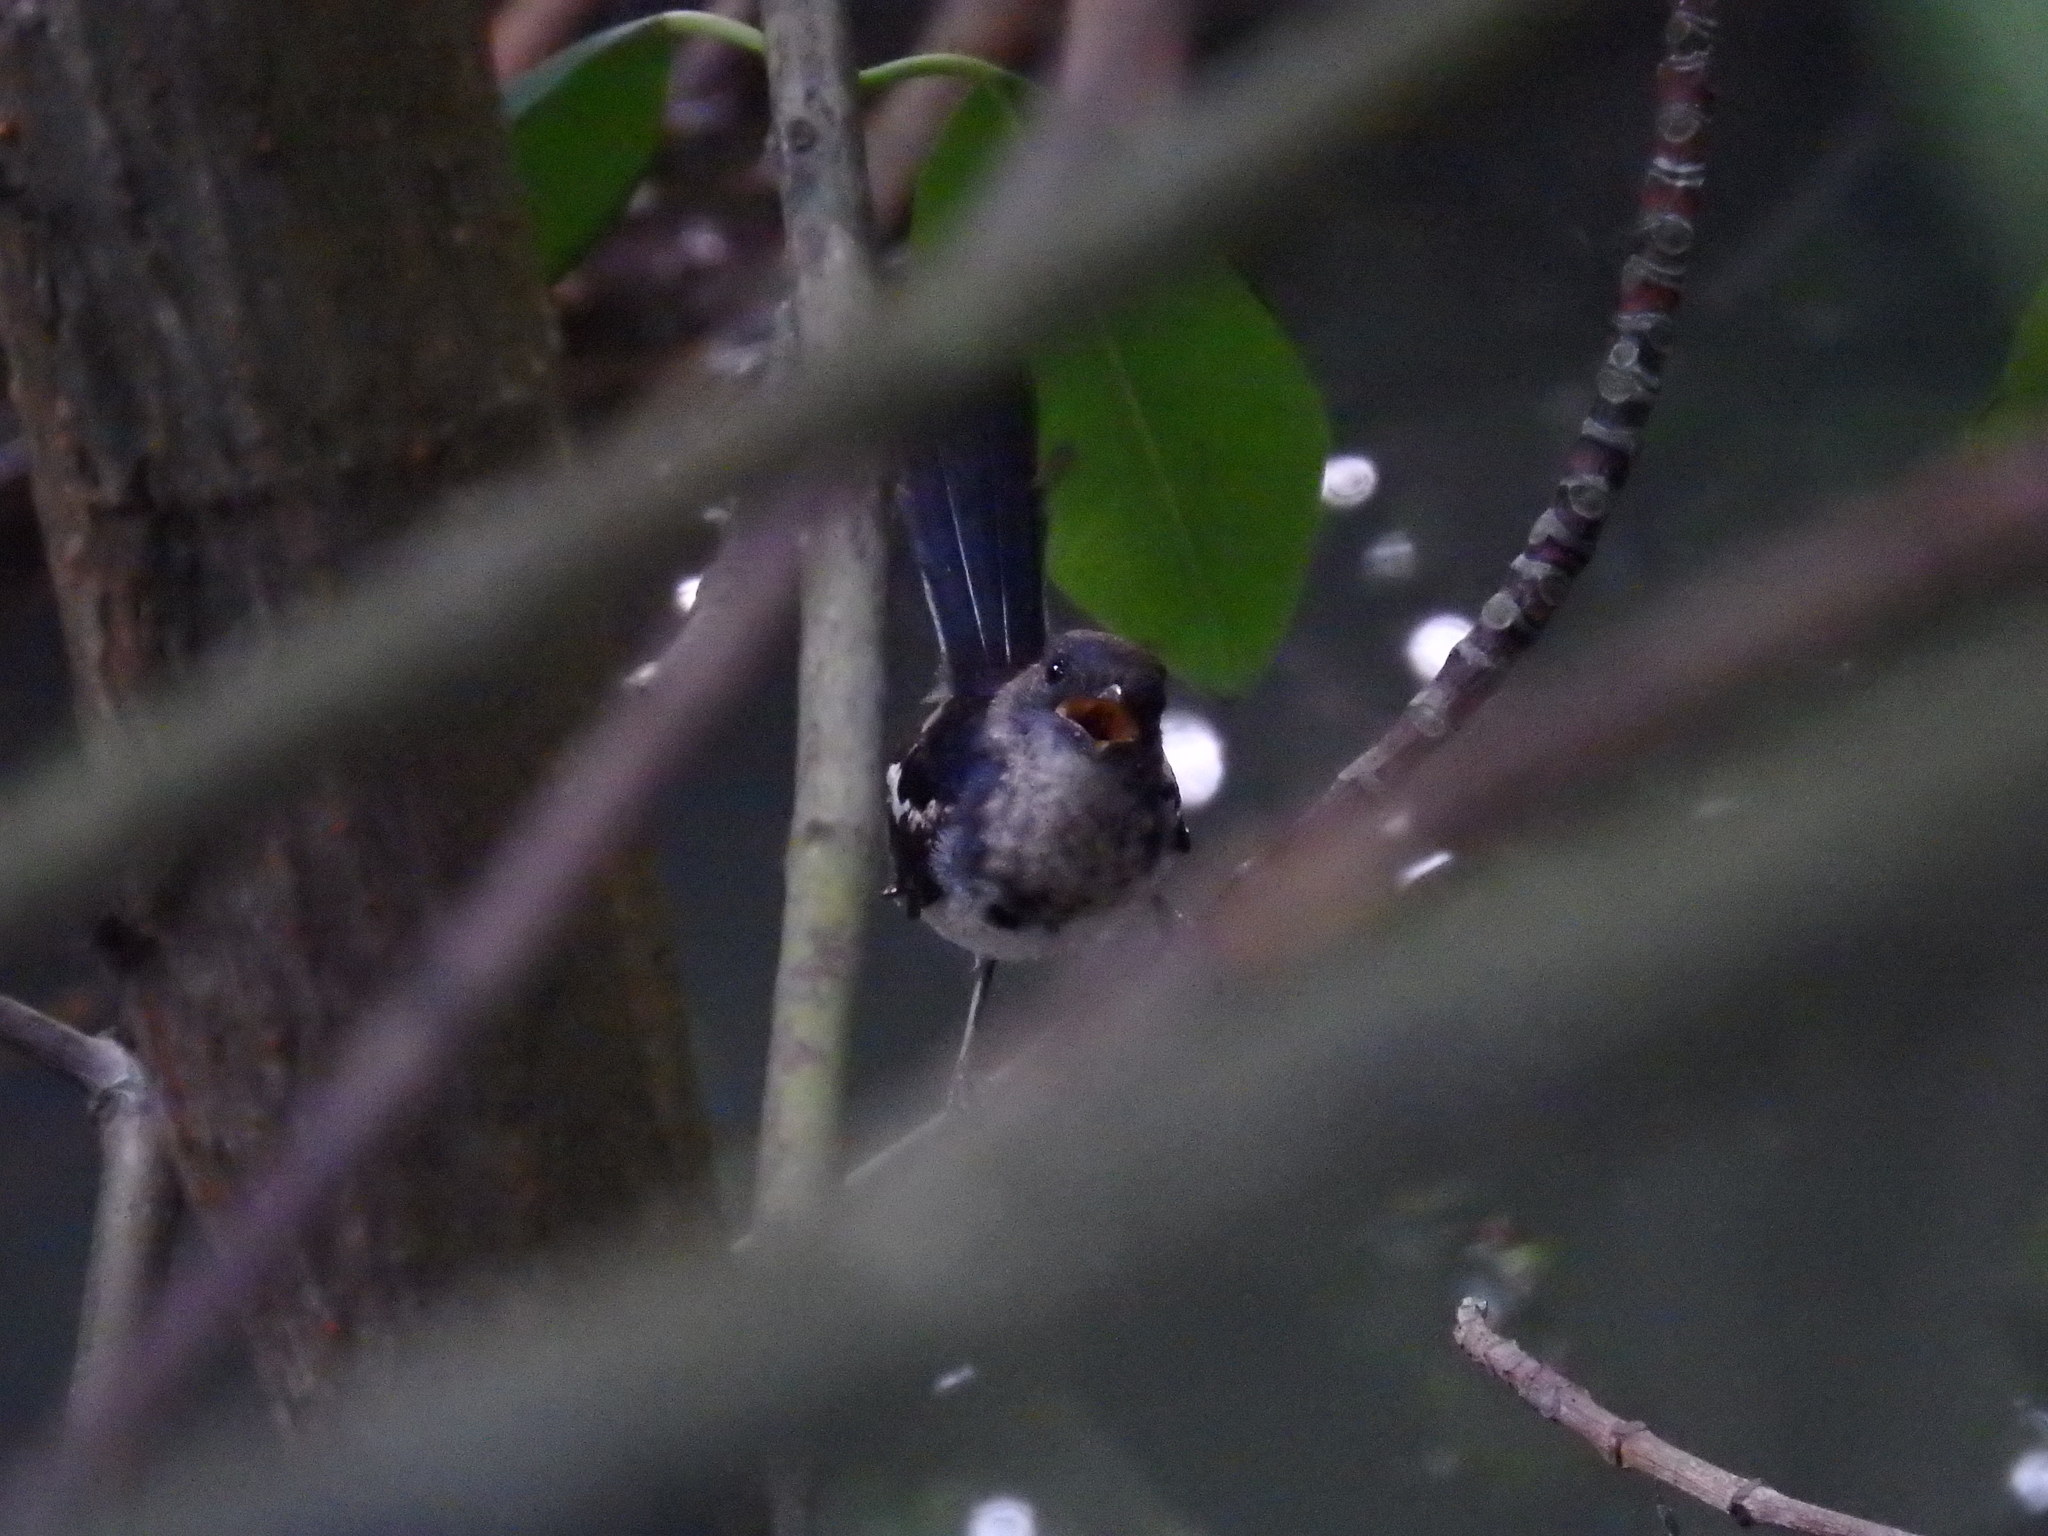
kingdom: Animalia
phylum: Chordata
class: Aves
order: Passeriformes
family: Muscicapidae
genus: Copsychus
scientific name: Copsychus saularis
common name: Oriental magpie-robin
